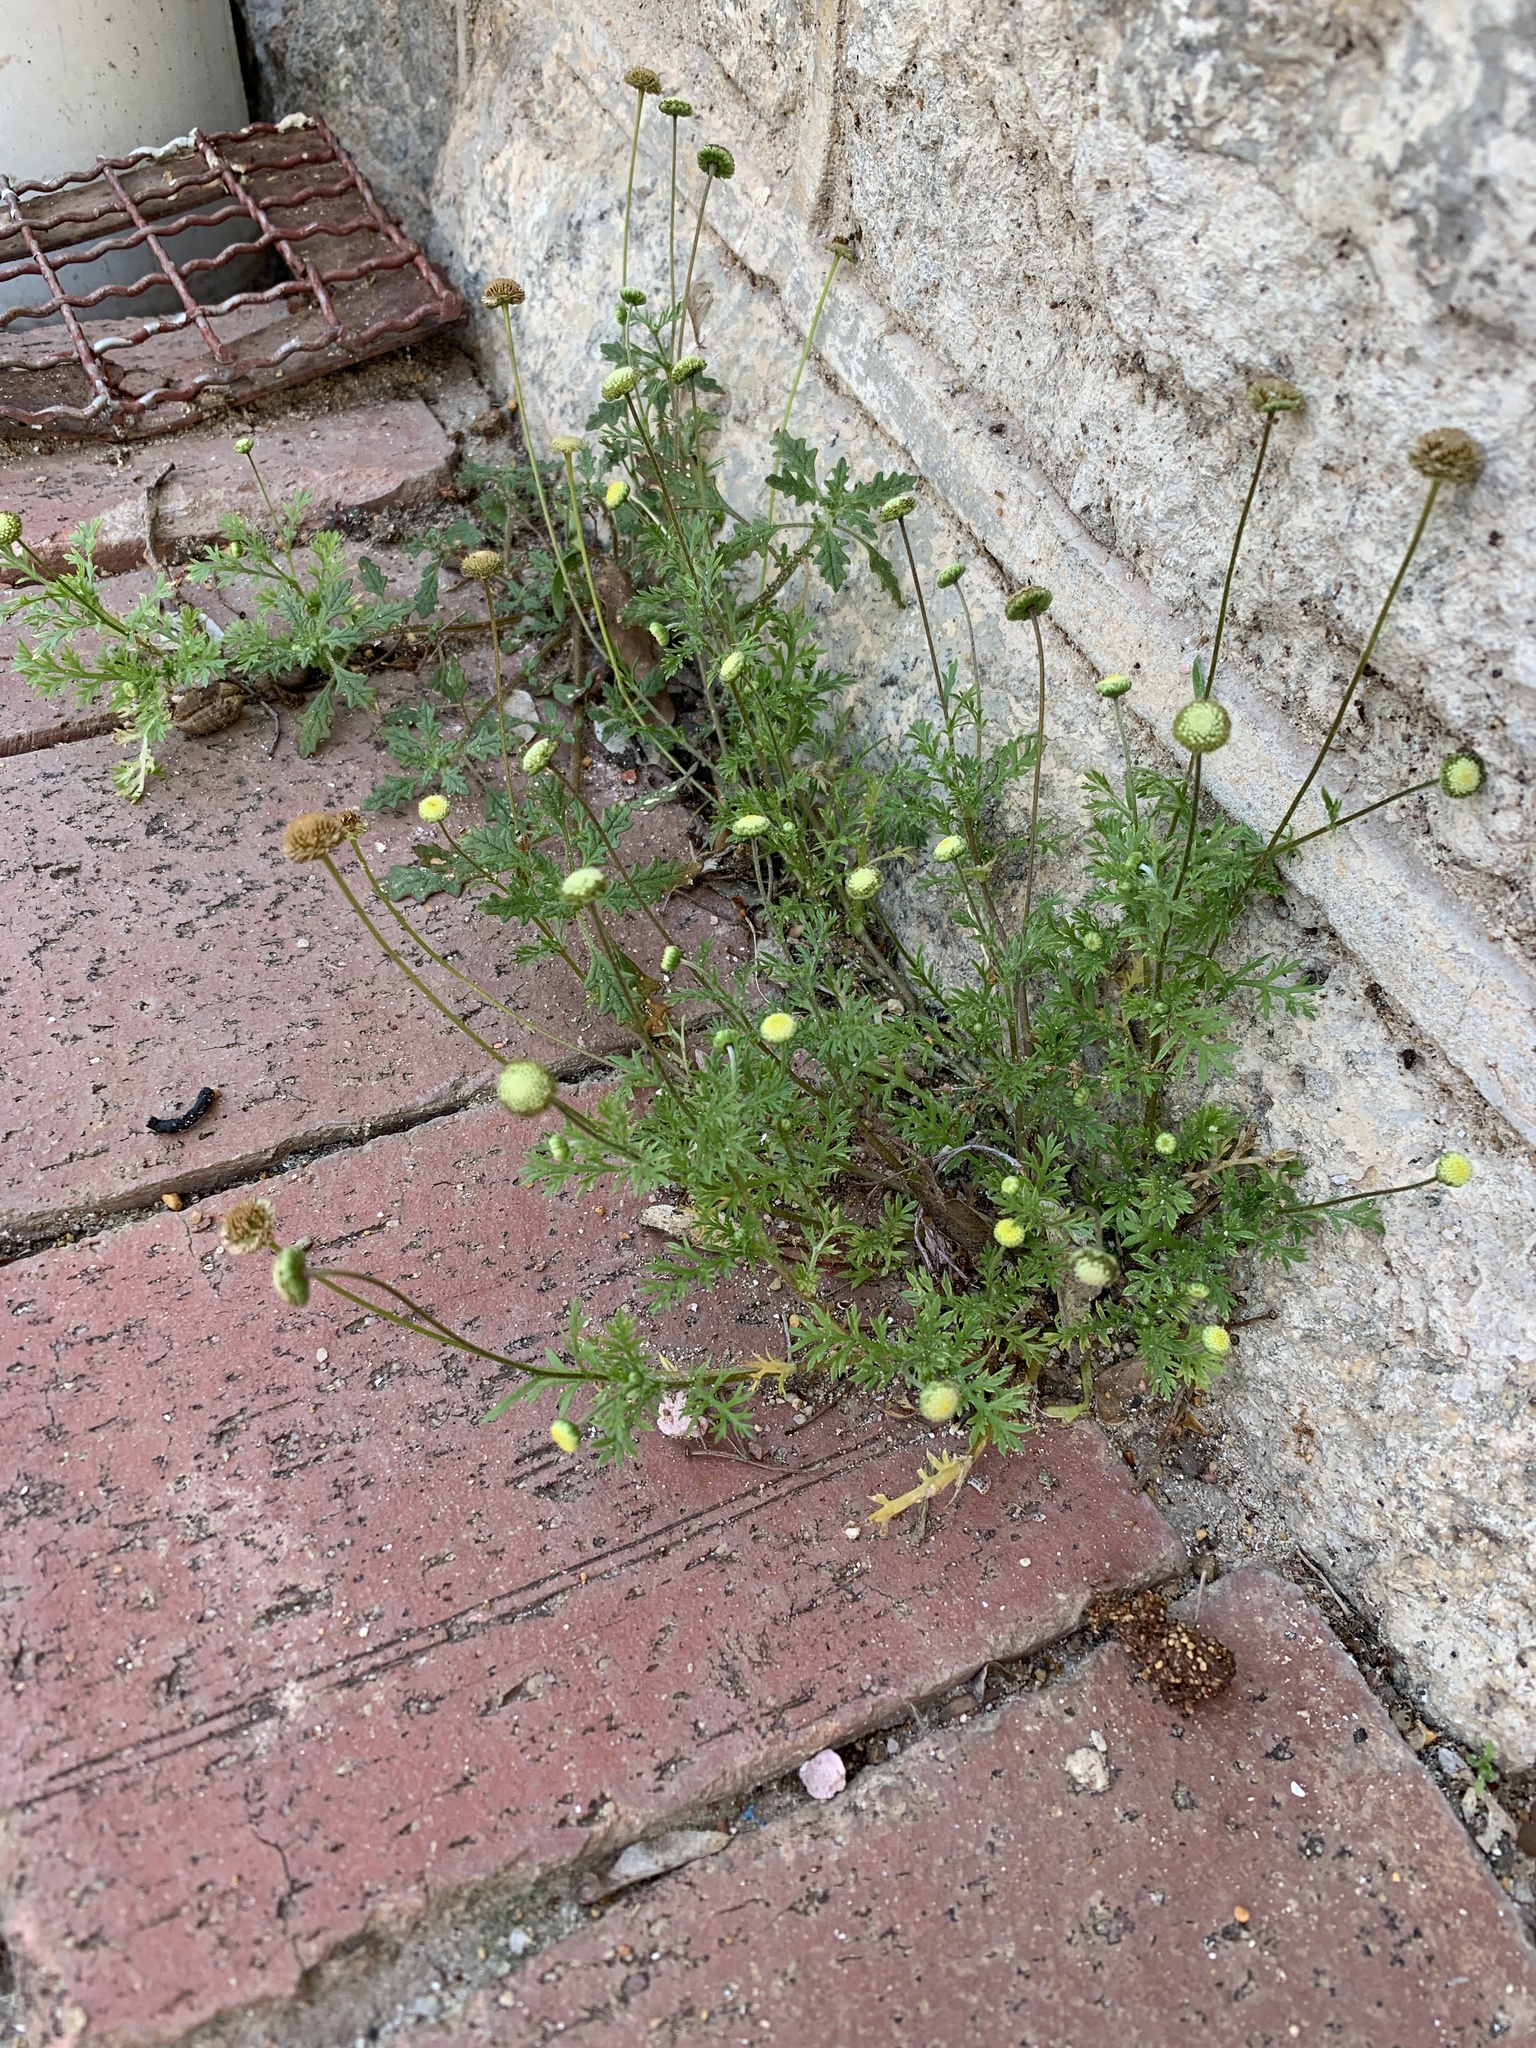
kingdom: Plantae
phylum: Tracheophyta
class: Magnoliopsida
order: Asterales
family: Asteraceae
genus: Cotula
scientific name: Cotula australis
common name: Australian waterbuttons
